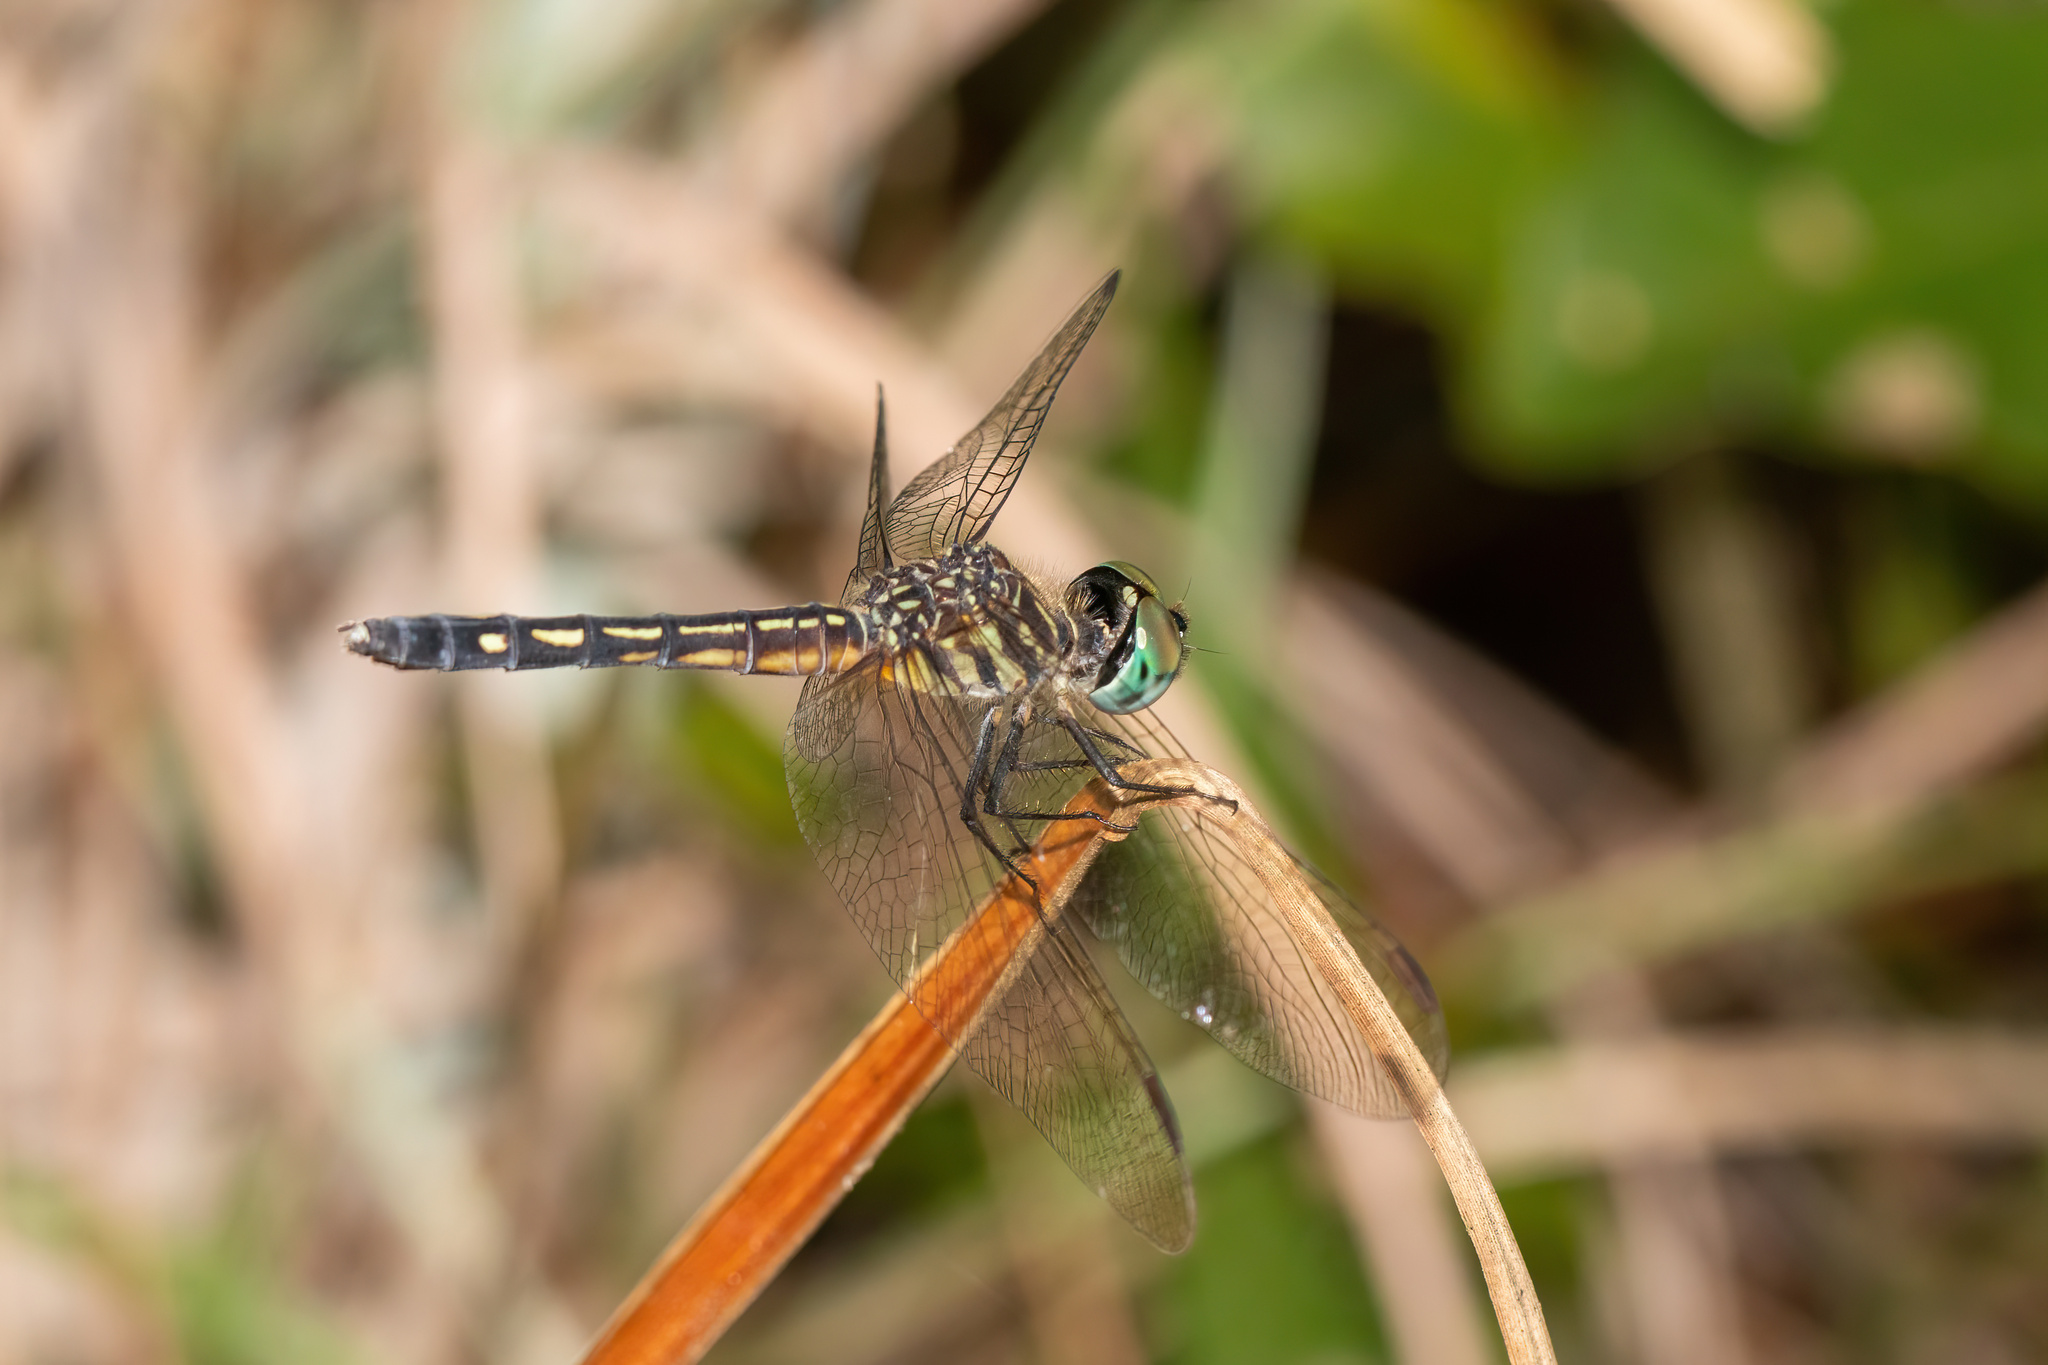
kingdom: Animalia
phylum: Arthropoda
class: Insecta
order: Odonata
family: Libellulidae
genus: Pachydiplax
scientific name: Pachydiplax longipennis
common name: Blue dasher
